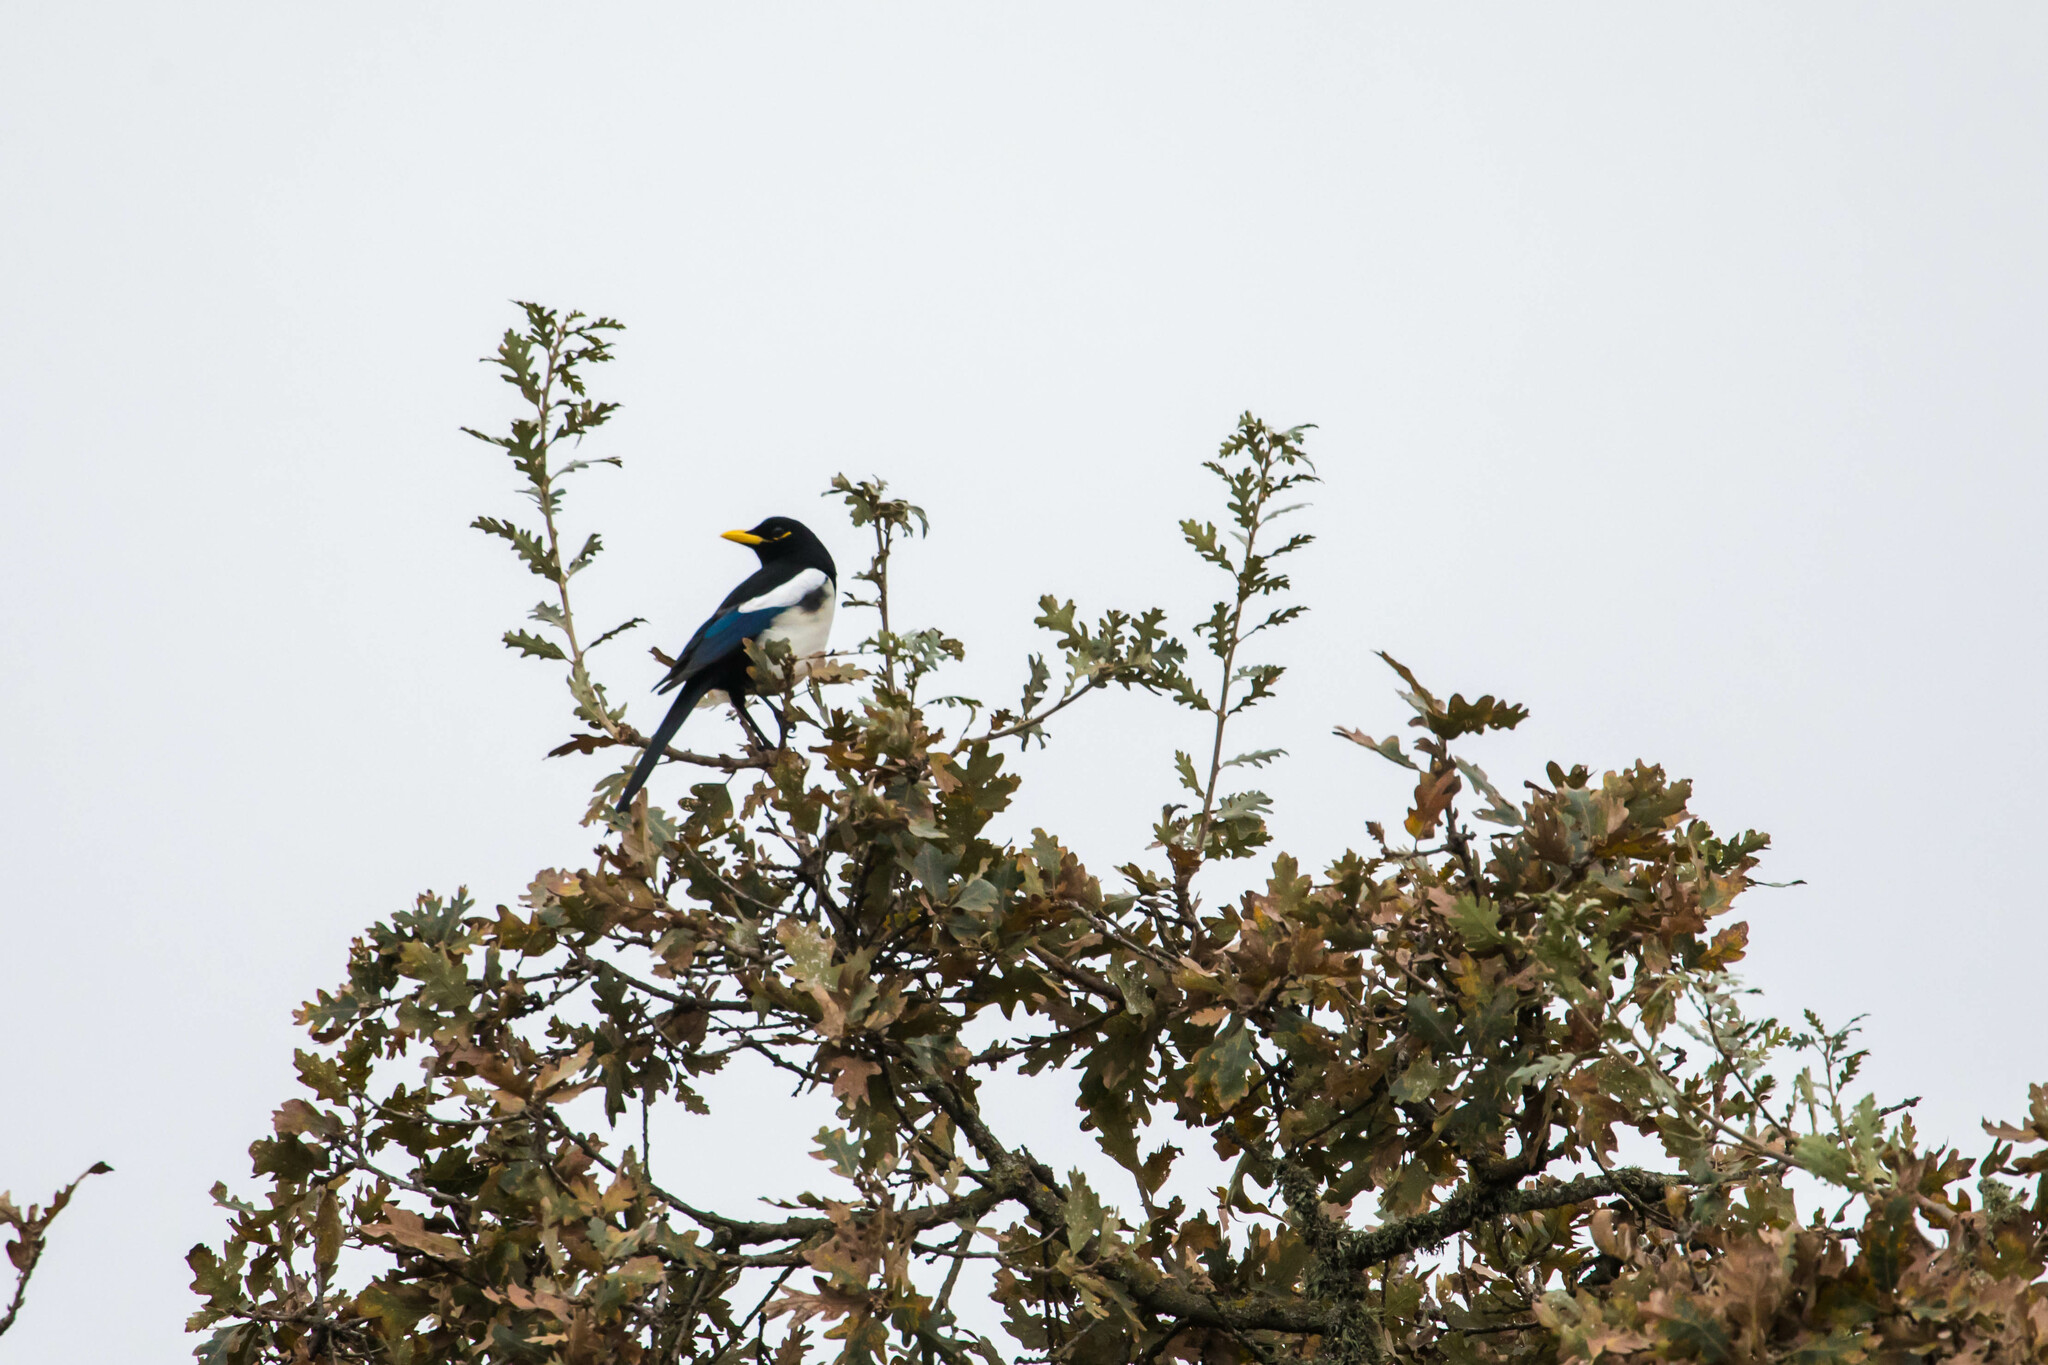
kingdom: Animalia
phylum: Chordata
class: Aves
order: Passeriformes
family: Corvidae
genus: Pica
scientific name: Pica nuttalli
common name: Yellow-billed magpie
